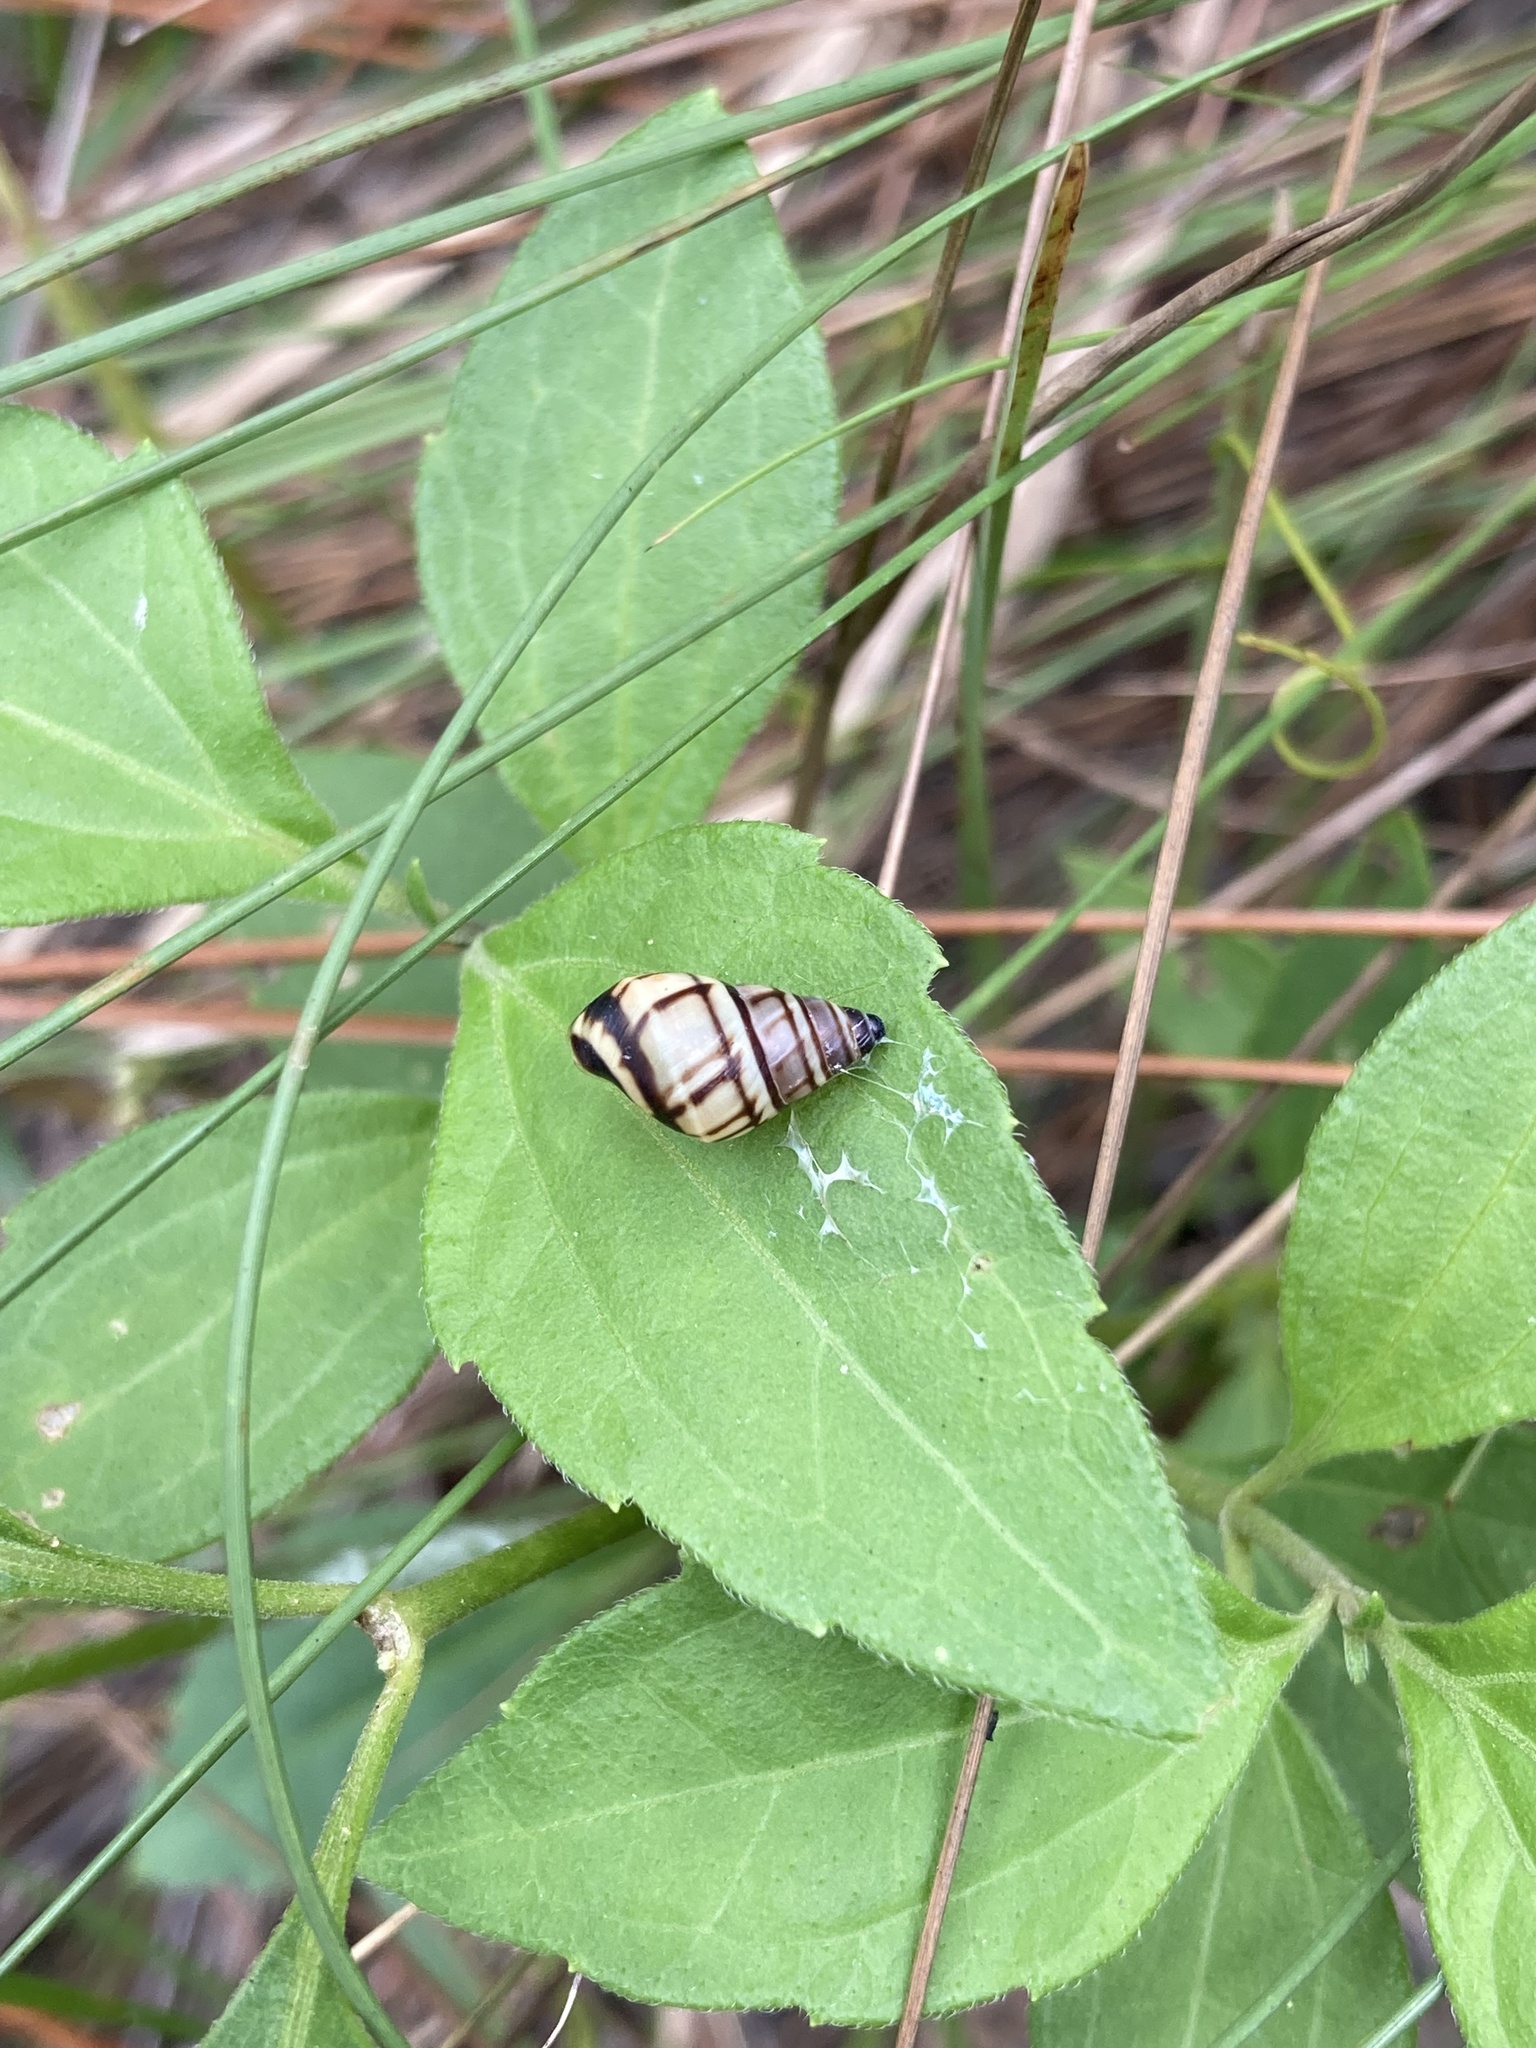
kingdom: Animalia
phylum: Mollusca
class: Gastropoda
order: Stylommatophora
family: Bulimulidae
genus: Drymaeus
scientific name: Drymaeus
